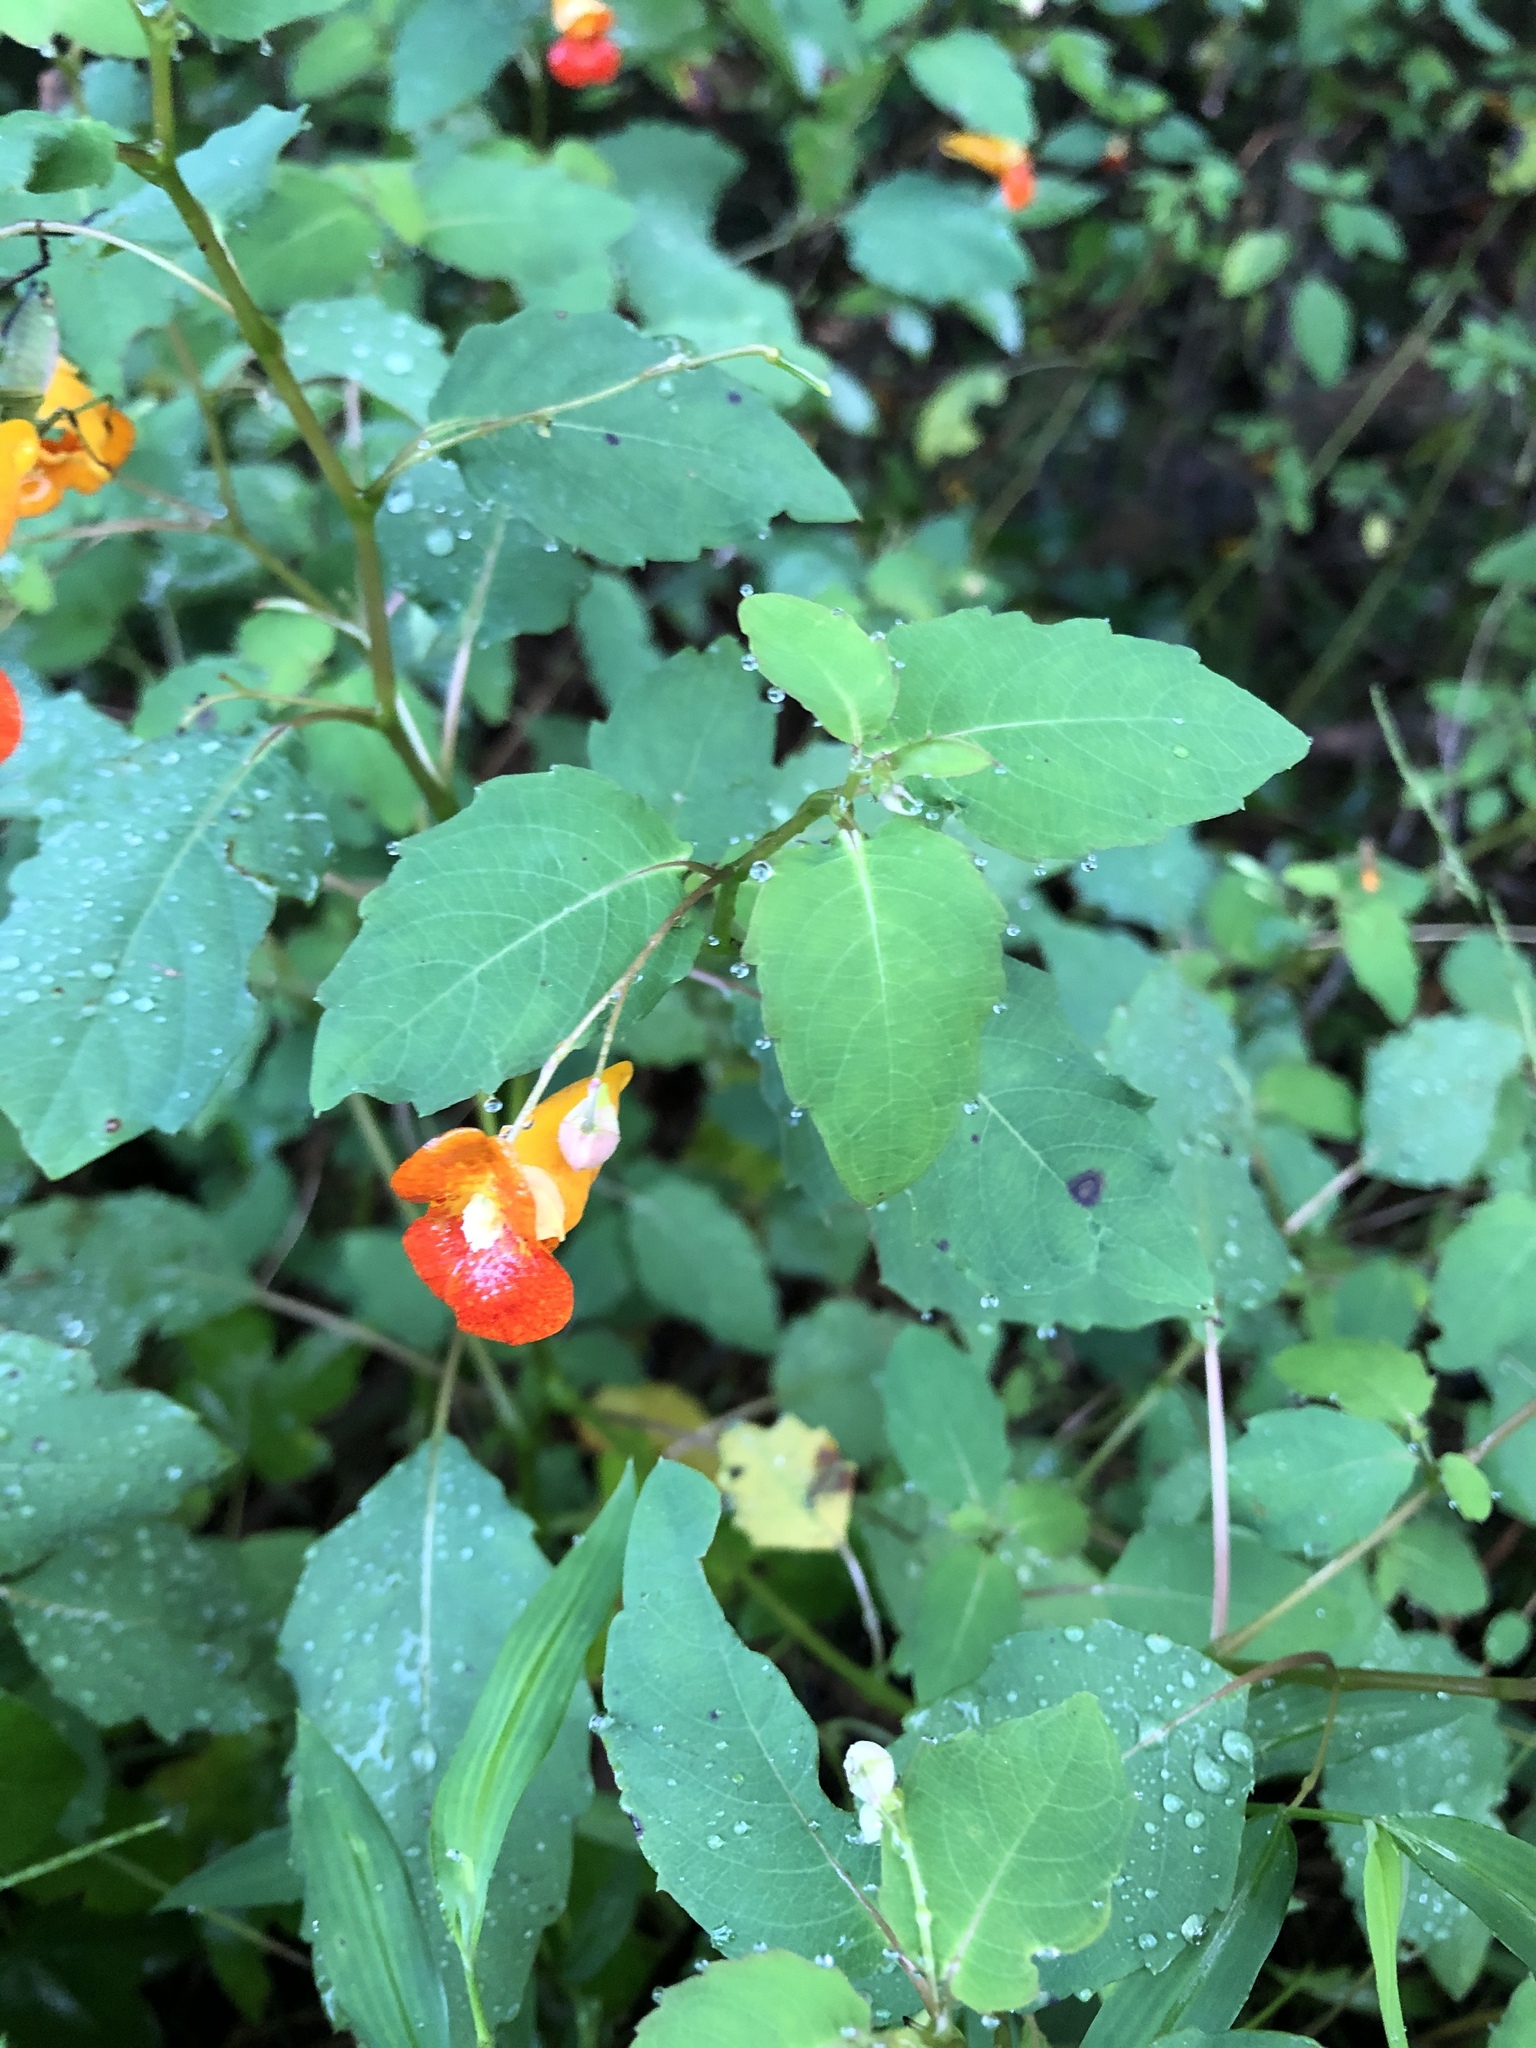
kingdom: Plantae
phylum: Tracheophyta
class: Magnoliopsida
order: Ericales
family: Balsaminaceae
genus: Impatiens
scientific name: Impatiens capensis
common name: Orange balsam
